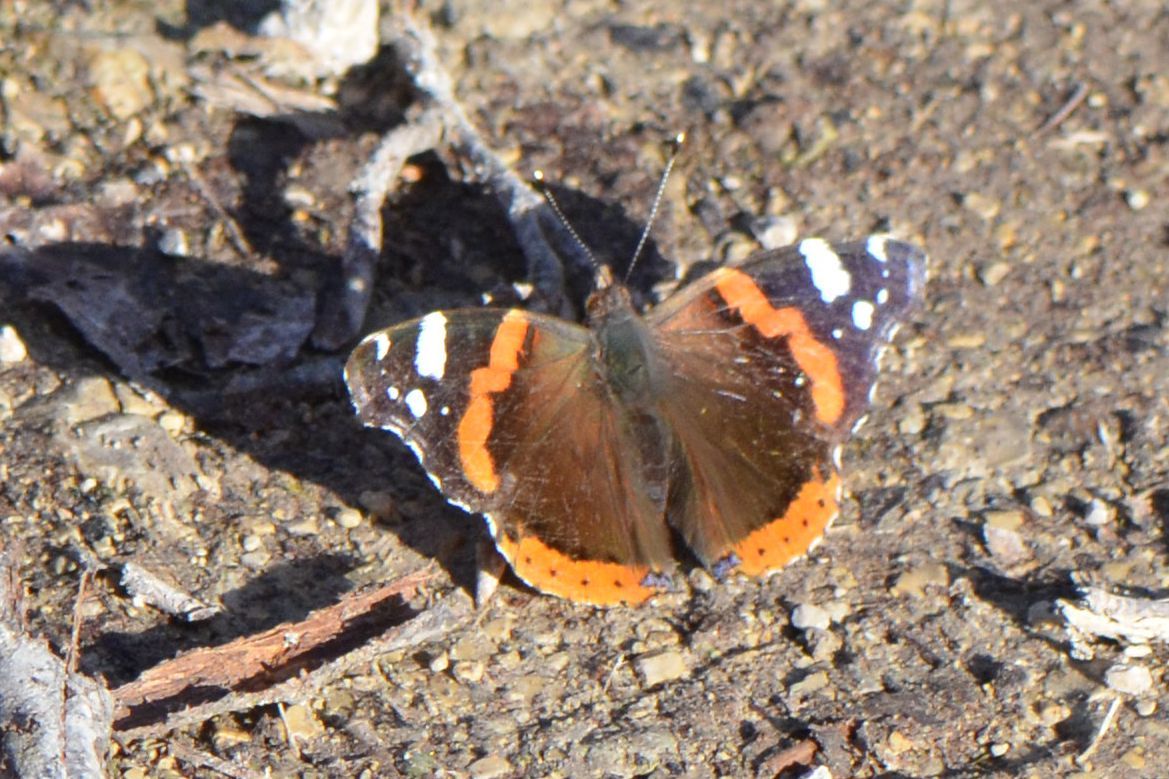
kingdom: Animalia
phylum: Arthropoda
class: Insecta
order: Lepidoptera
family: Nymphalidae
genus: Vanessa
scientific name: Vanessa atalanta
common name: Red admiral
